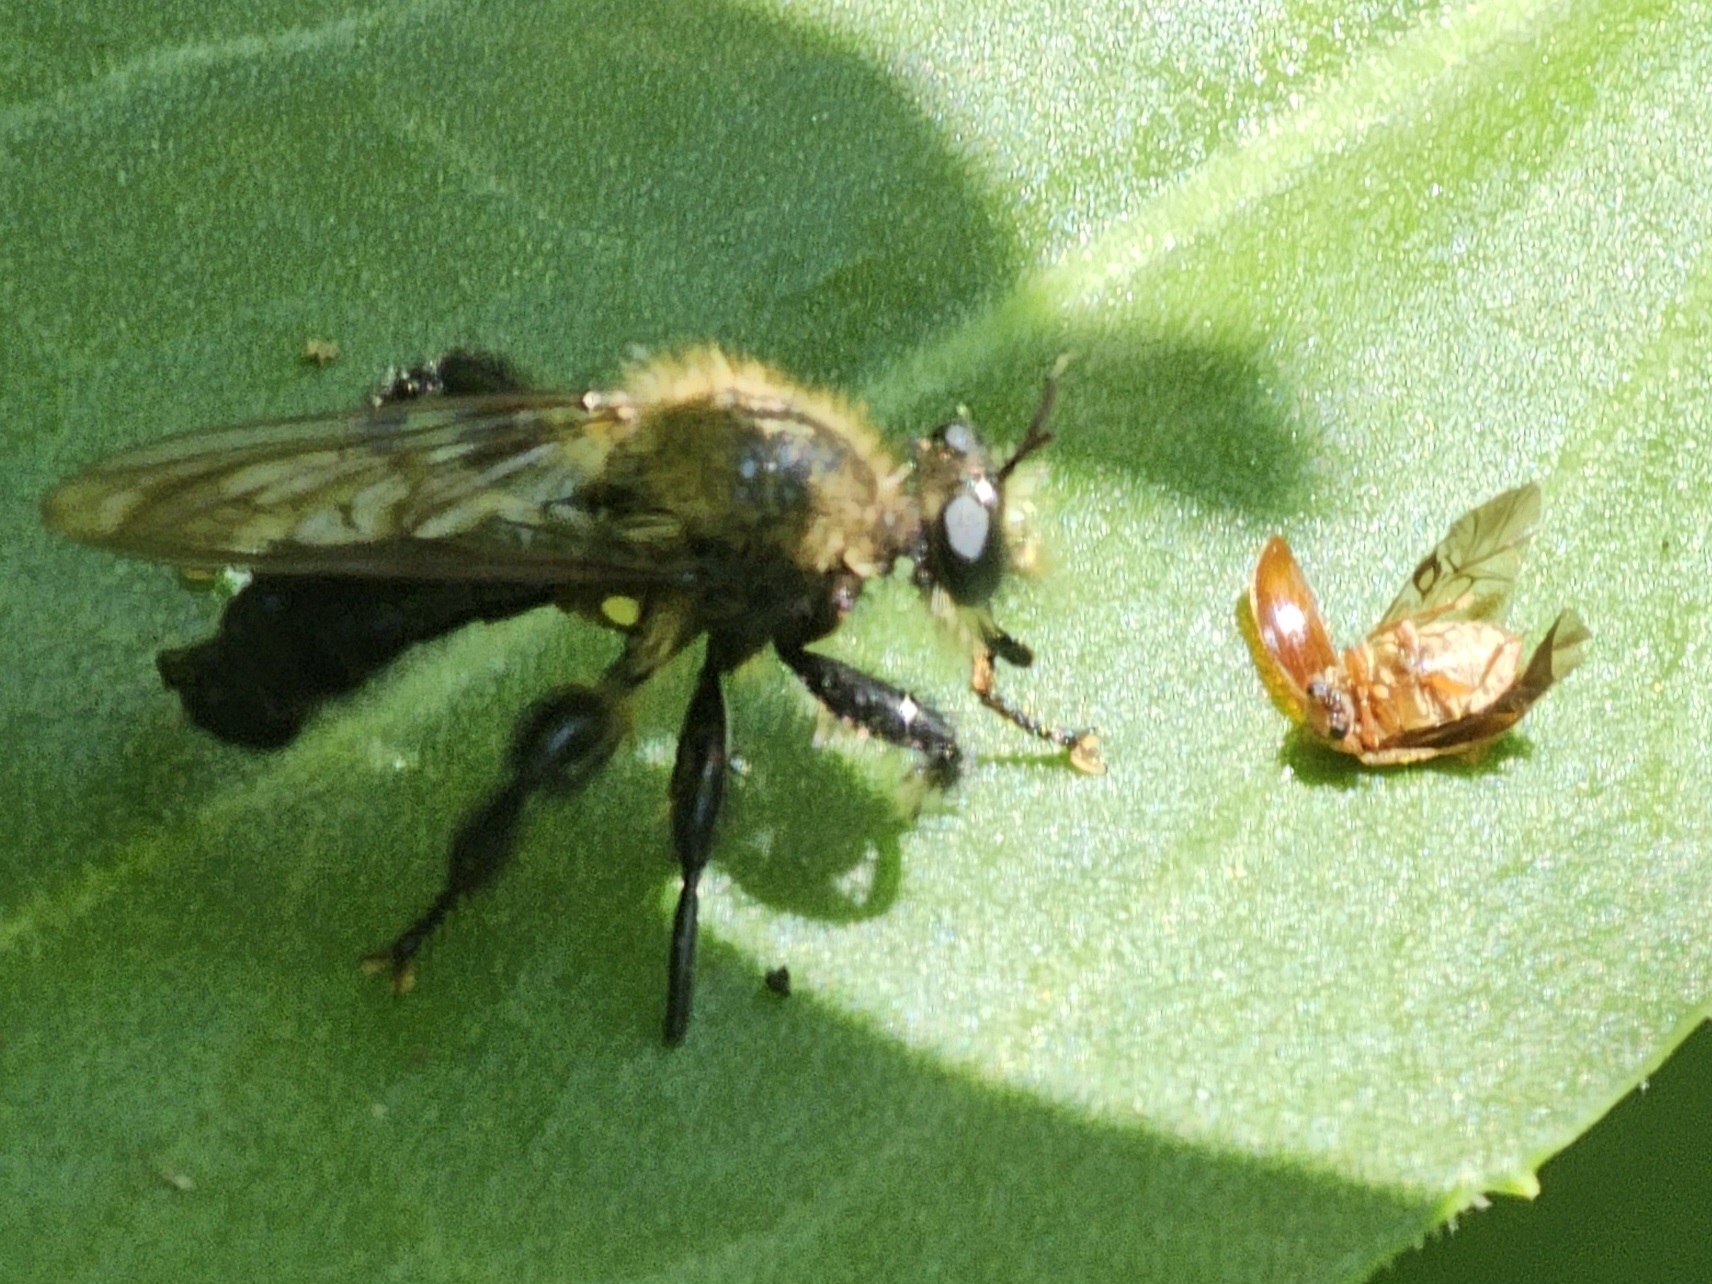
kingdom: Animalia
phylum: Arthropoda
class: Insecta
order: Diptera
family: Asilidae
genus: Laphria
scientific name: Laphria flavicollis
